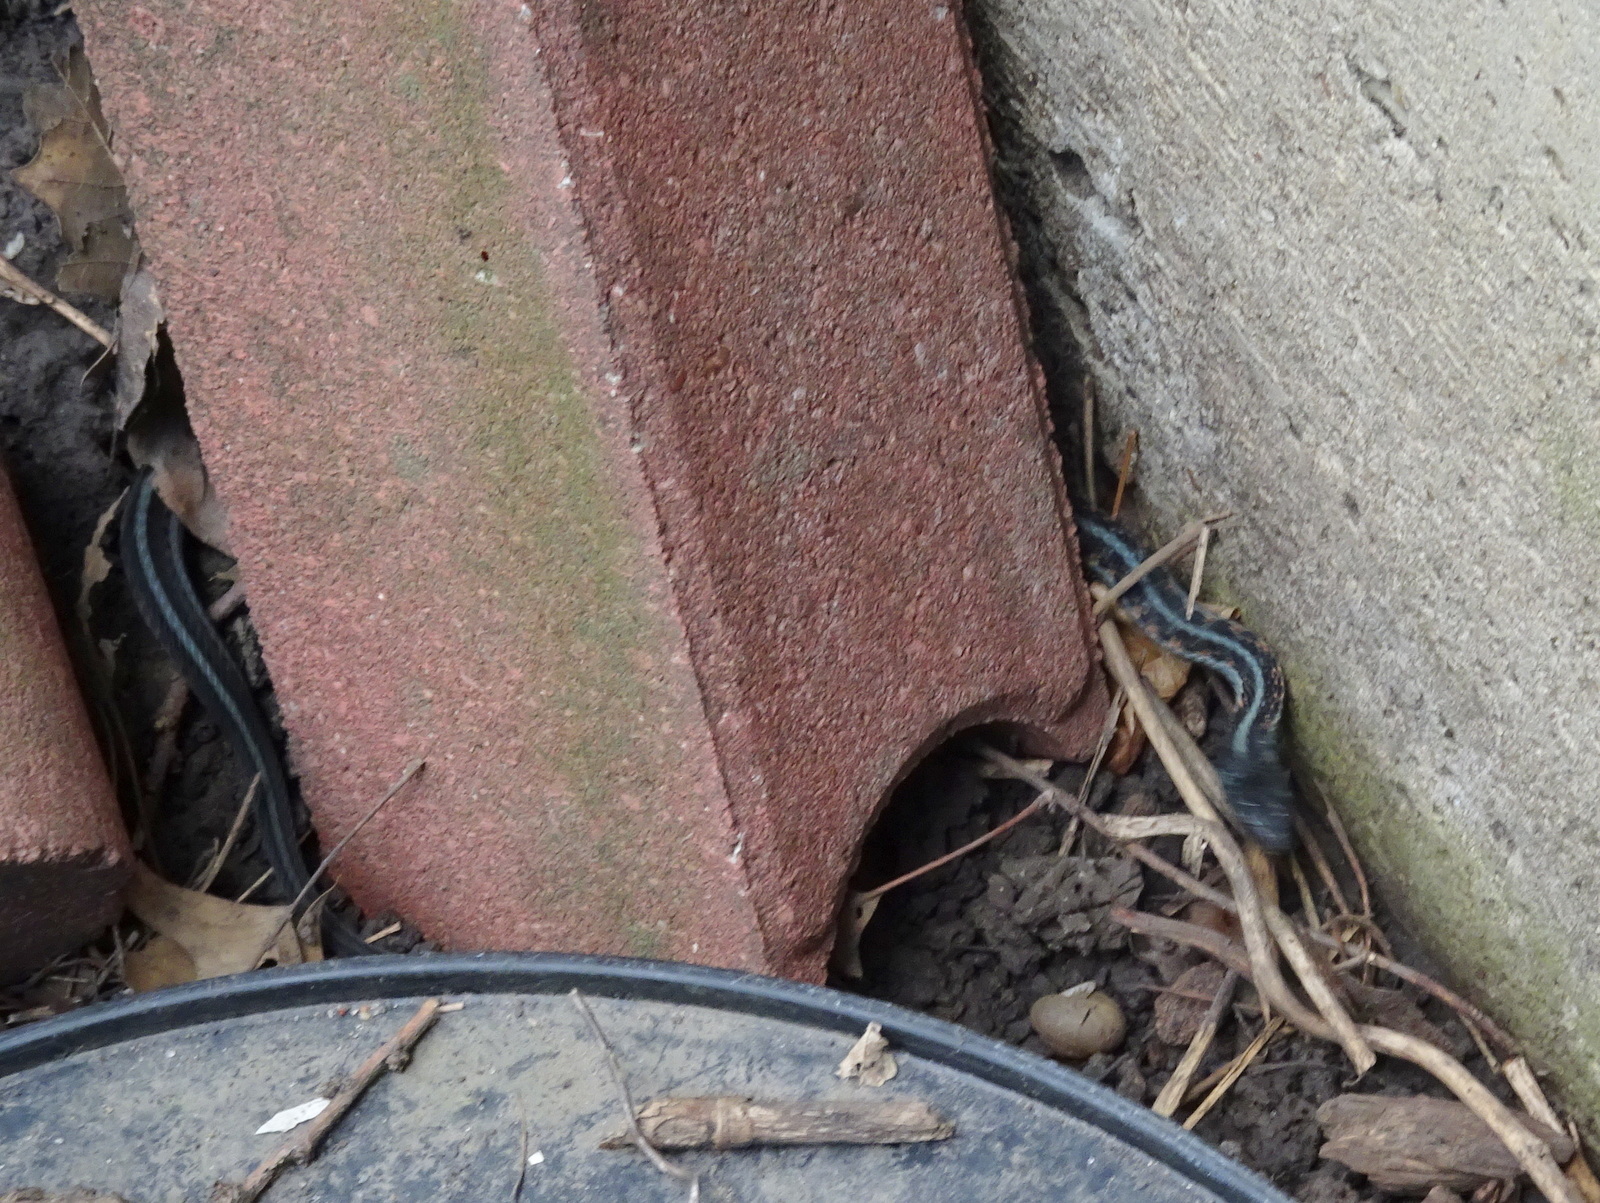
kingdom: Animalia
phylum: Chordata
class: Squamata
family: Colubridae
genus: Thamnophis
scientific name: Thamnophis sirtalis
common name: Common garter snake
